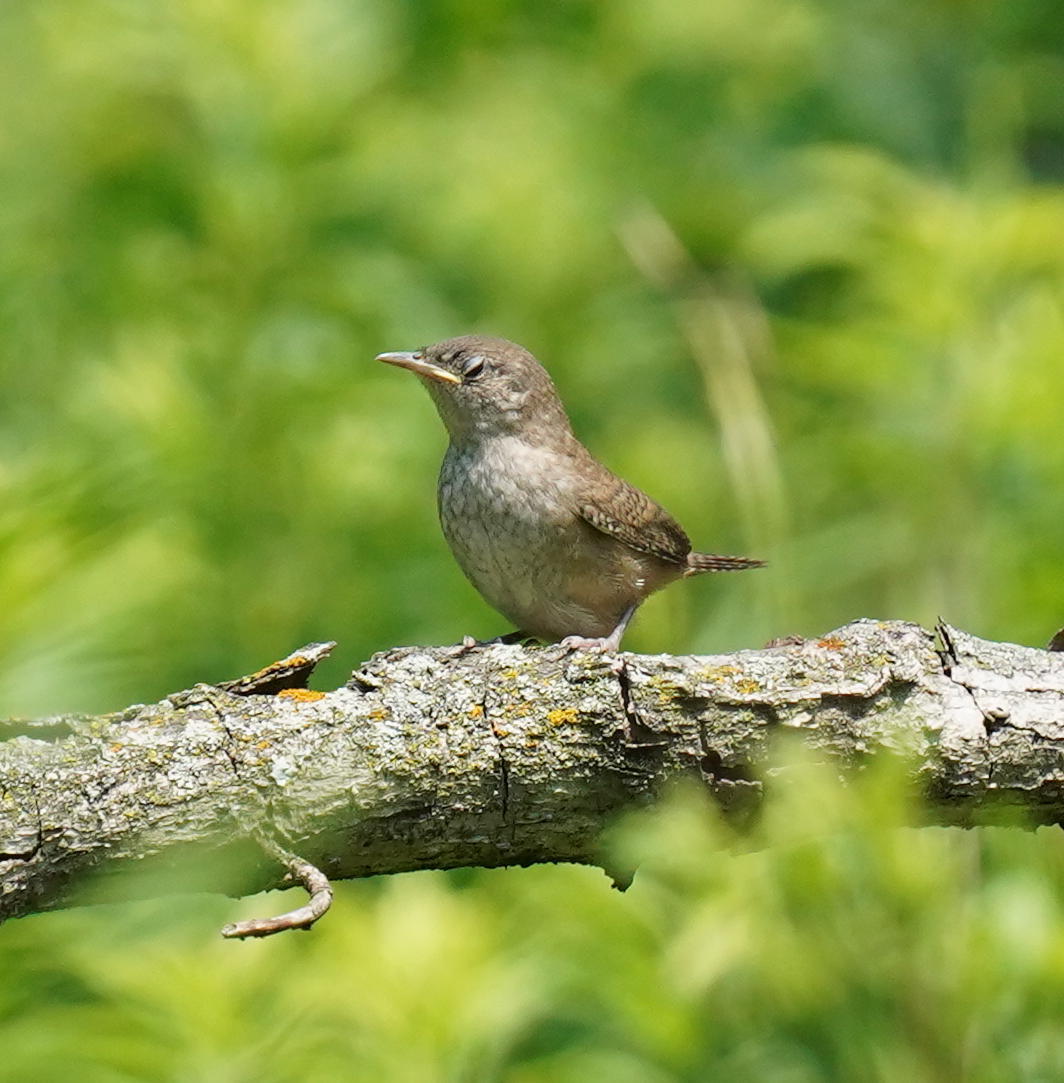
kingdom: Animalia
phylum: Chordata
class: Aves
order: Passeriformes
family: Troglodytidae
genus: Troglodytes
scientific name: Troglodytes aedon
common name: House wren
